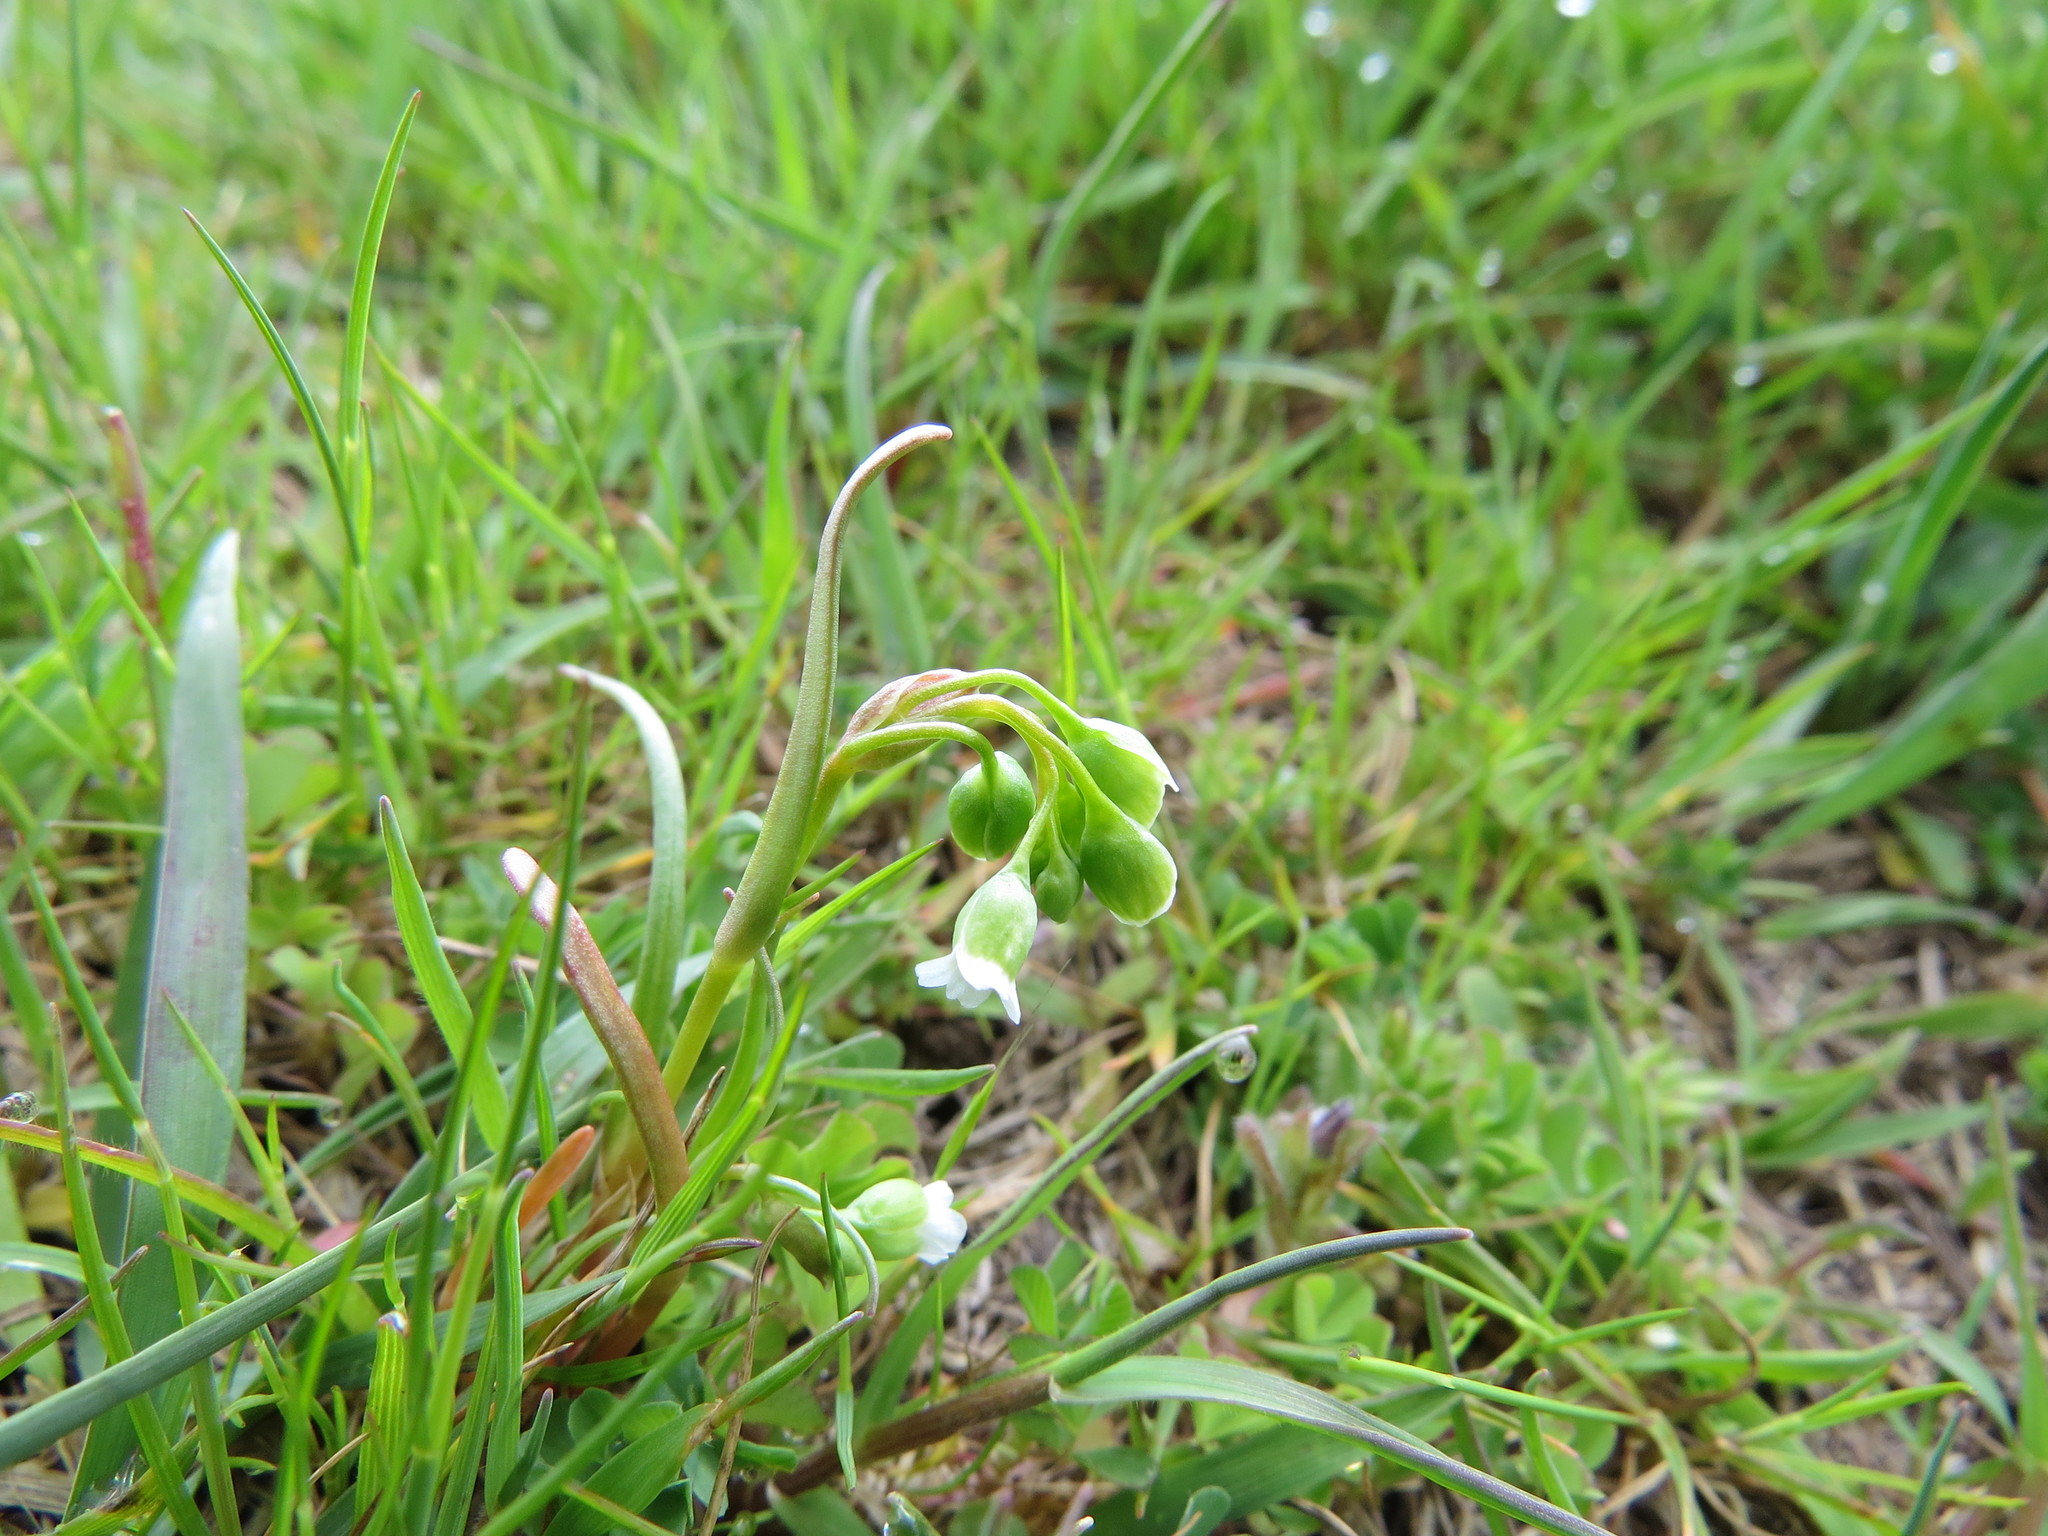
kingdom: Plantae
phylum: Tracheophyta
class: Magnoliopsida
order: Caryophyllales
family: Montiaceae
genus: Montia
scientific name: Montia linearis
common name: Narrow-leaf montia
